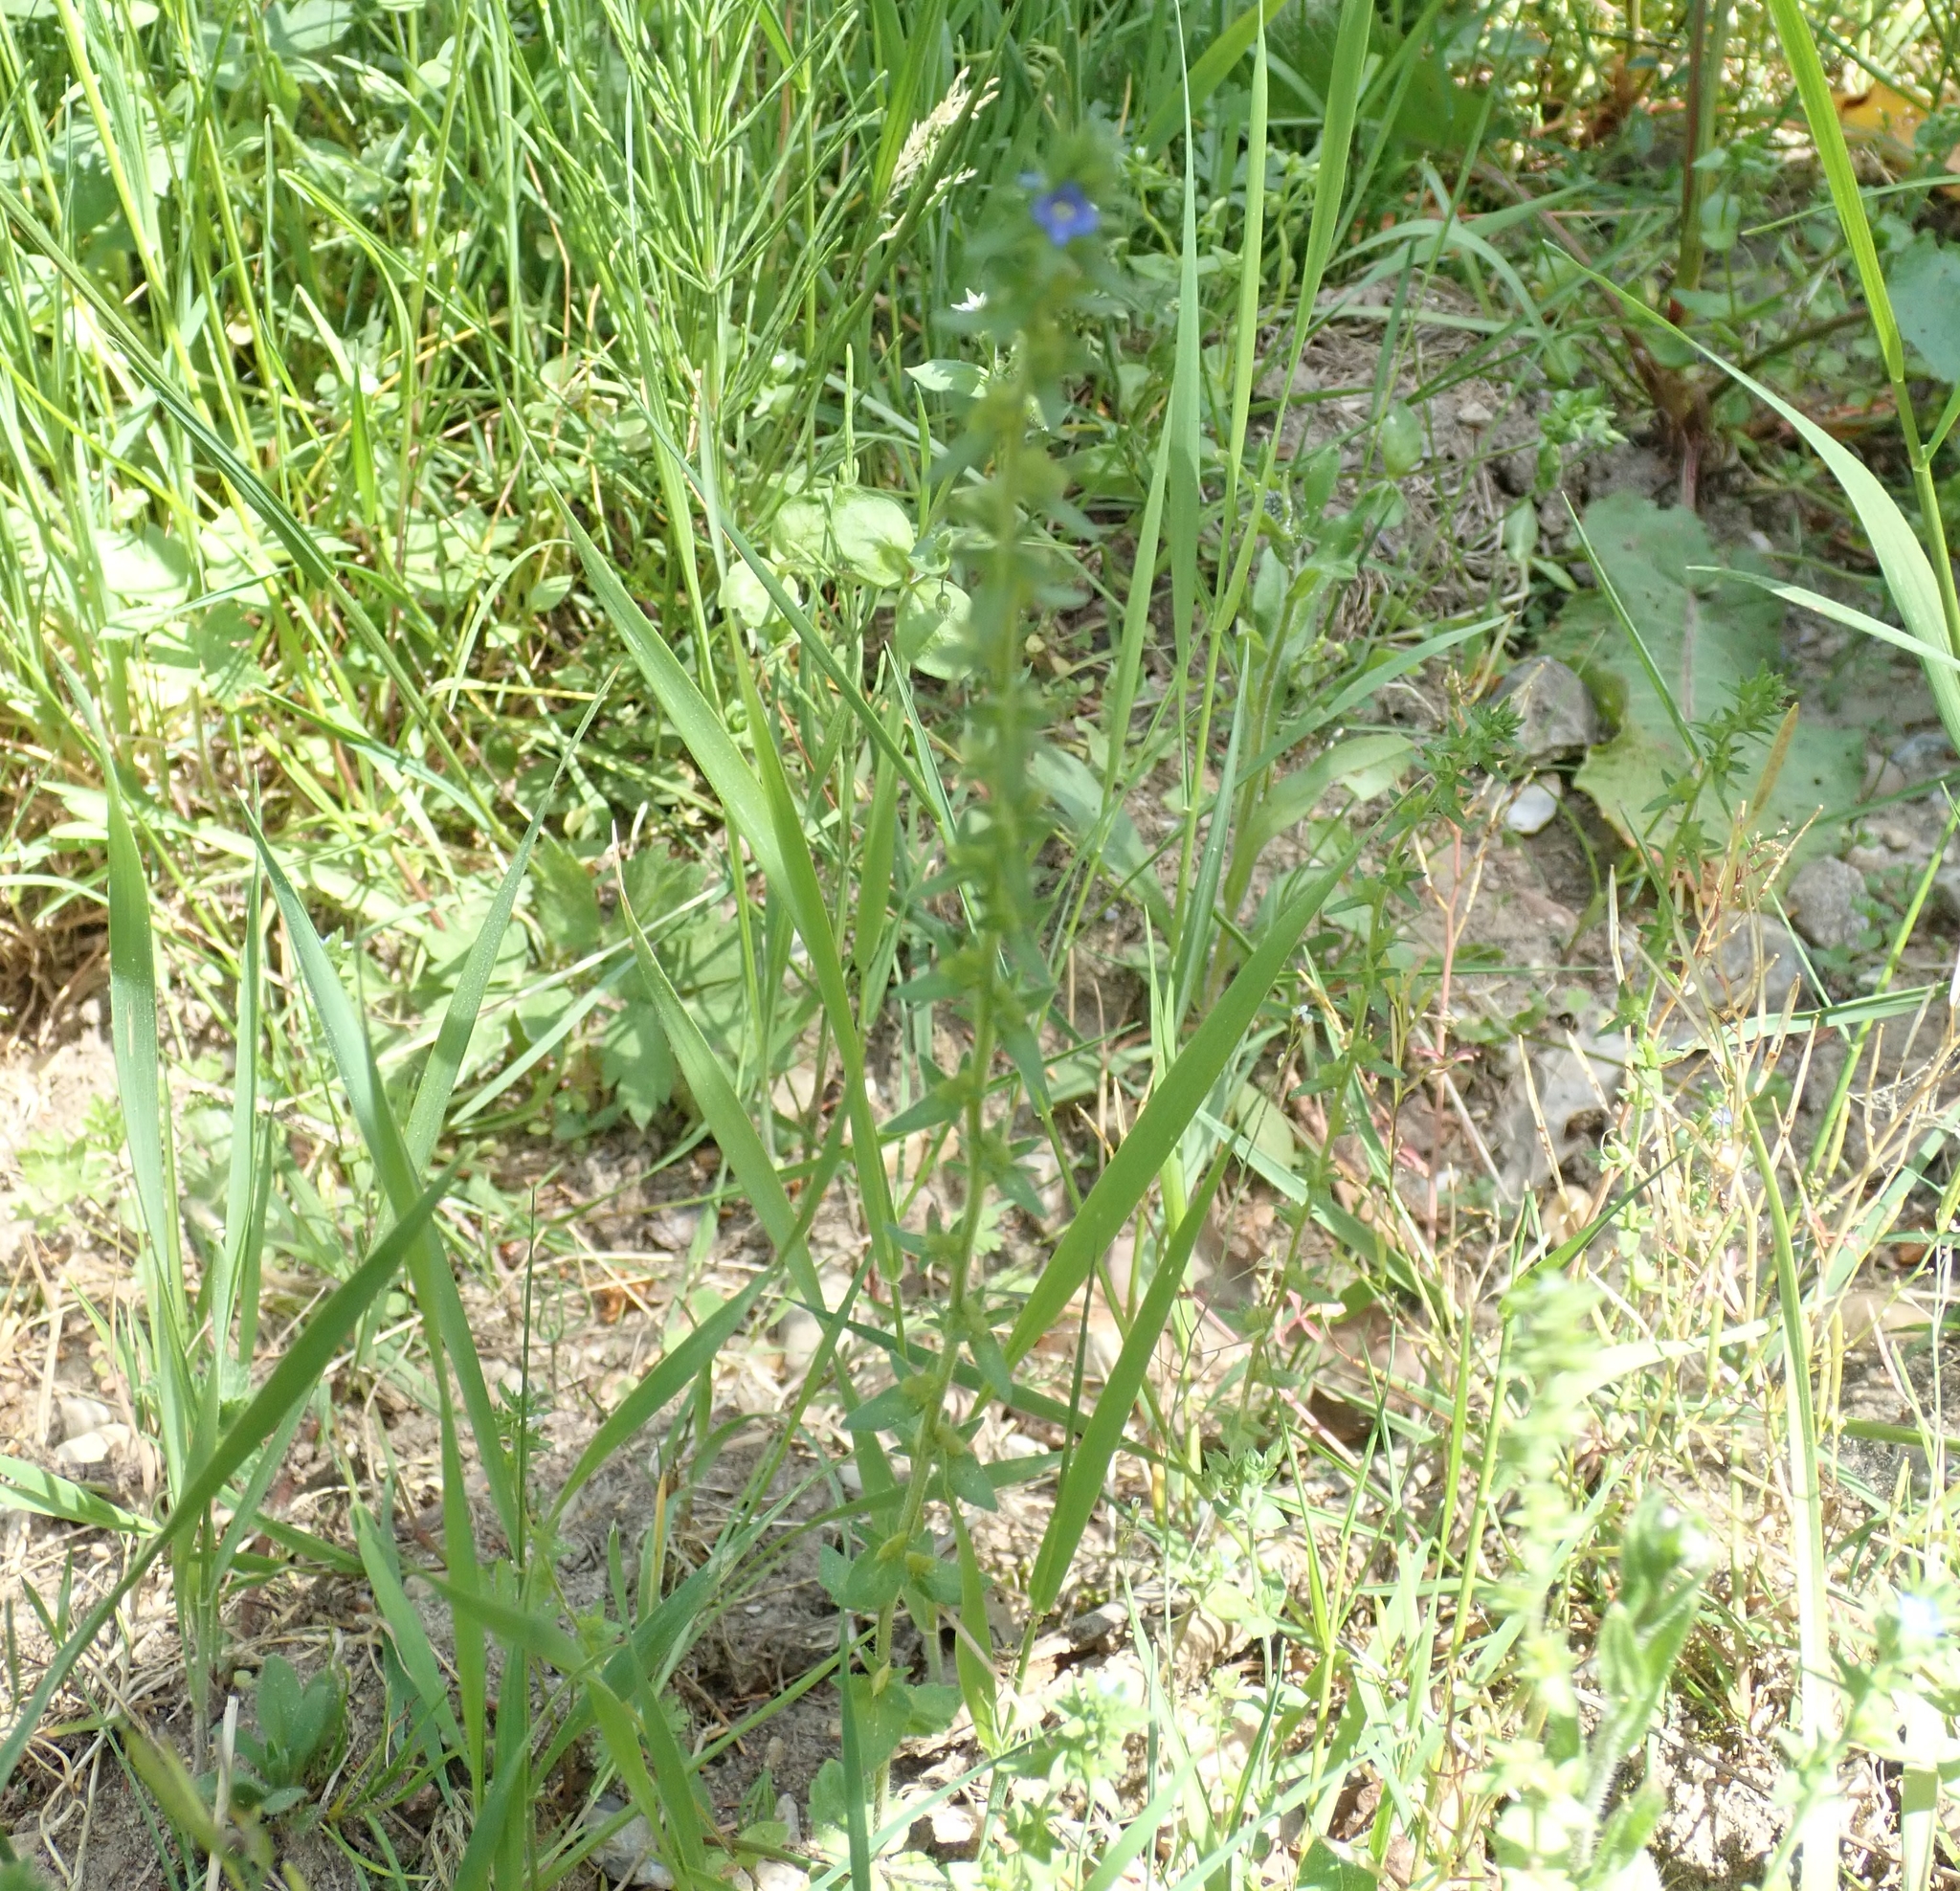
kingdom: Plantae
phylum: Tracheophyta
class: Magnoliopsida
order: Lamiales
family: Plantaginaceae
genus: Veronica
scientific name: Veronica arvensis
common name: Corn speedwell
